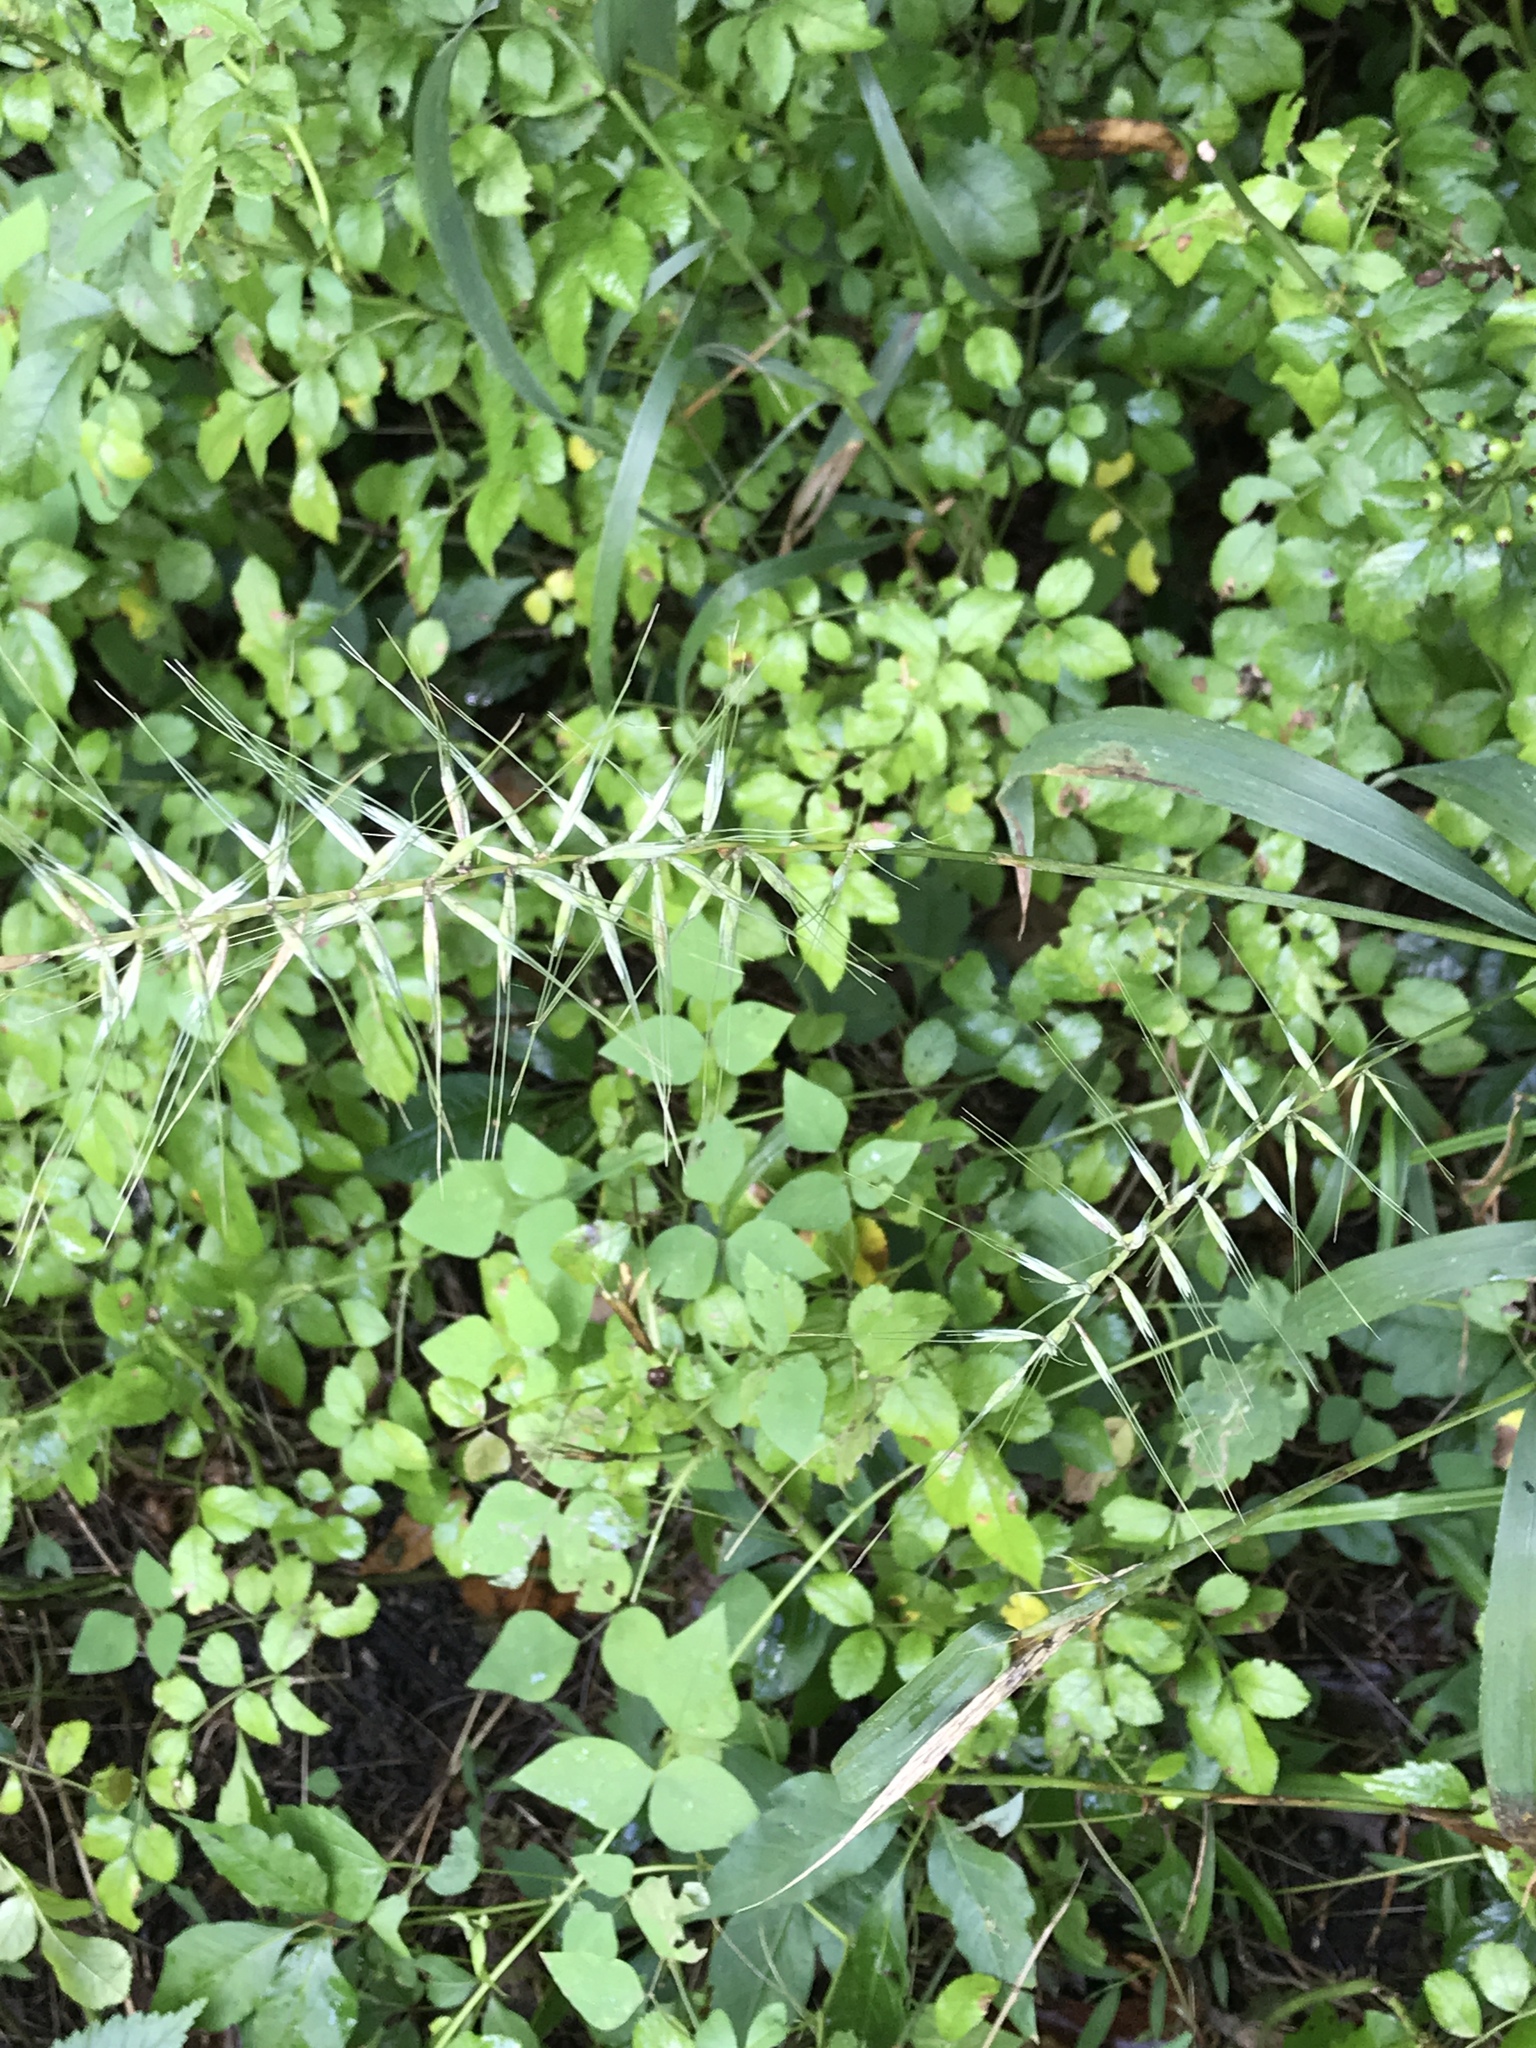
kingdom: Plantae
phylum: Tracheophyta
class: Liliopsida
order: Poales
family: Poaceae
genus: Elymus
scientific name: Elymus hystrix
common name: Bottlebrush grass
